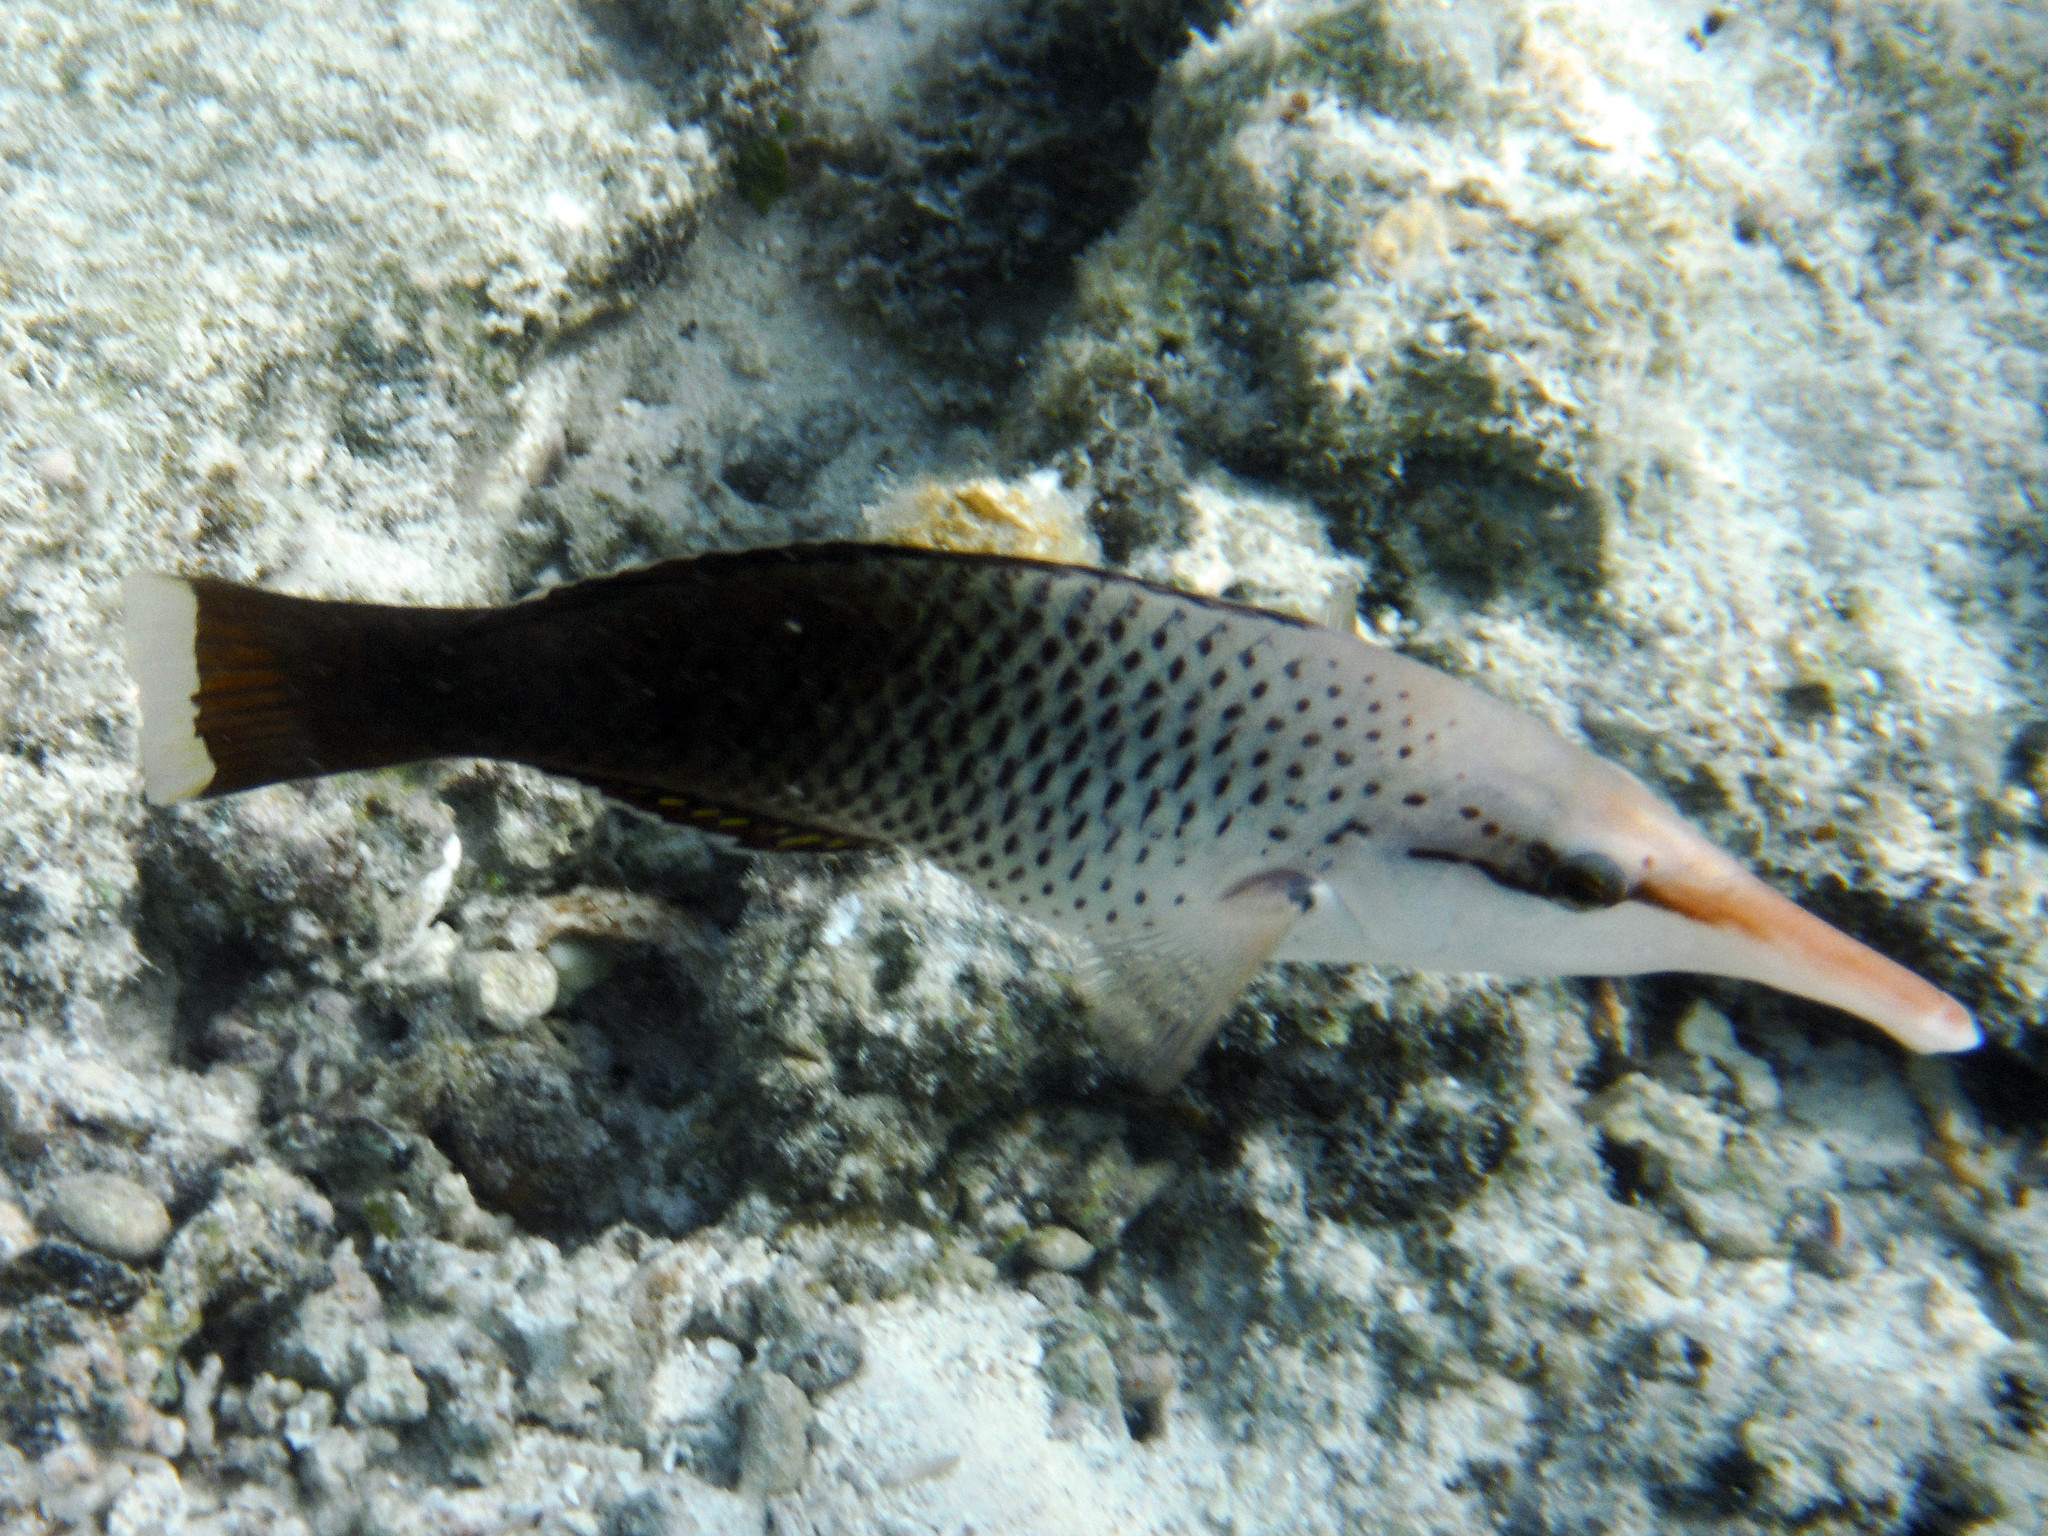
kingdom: Animalia
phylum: Chordata
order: Perciformes
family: Labridae
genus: Gomphosus
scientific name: Gomphosus varius
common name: Bird wrasse
